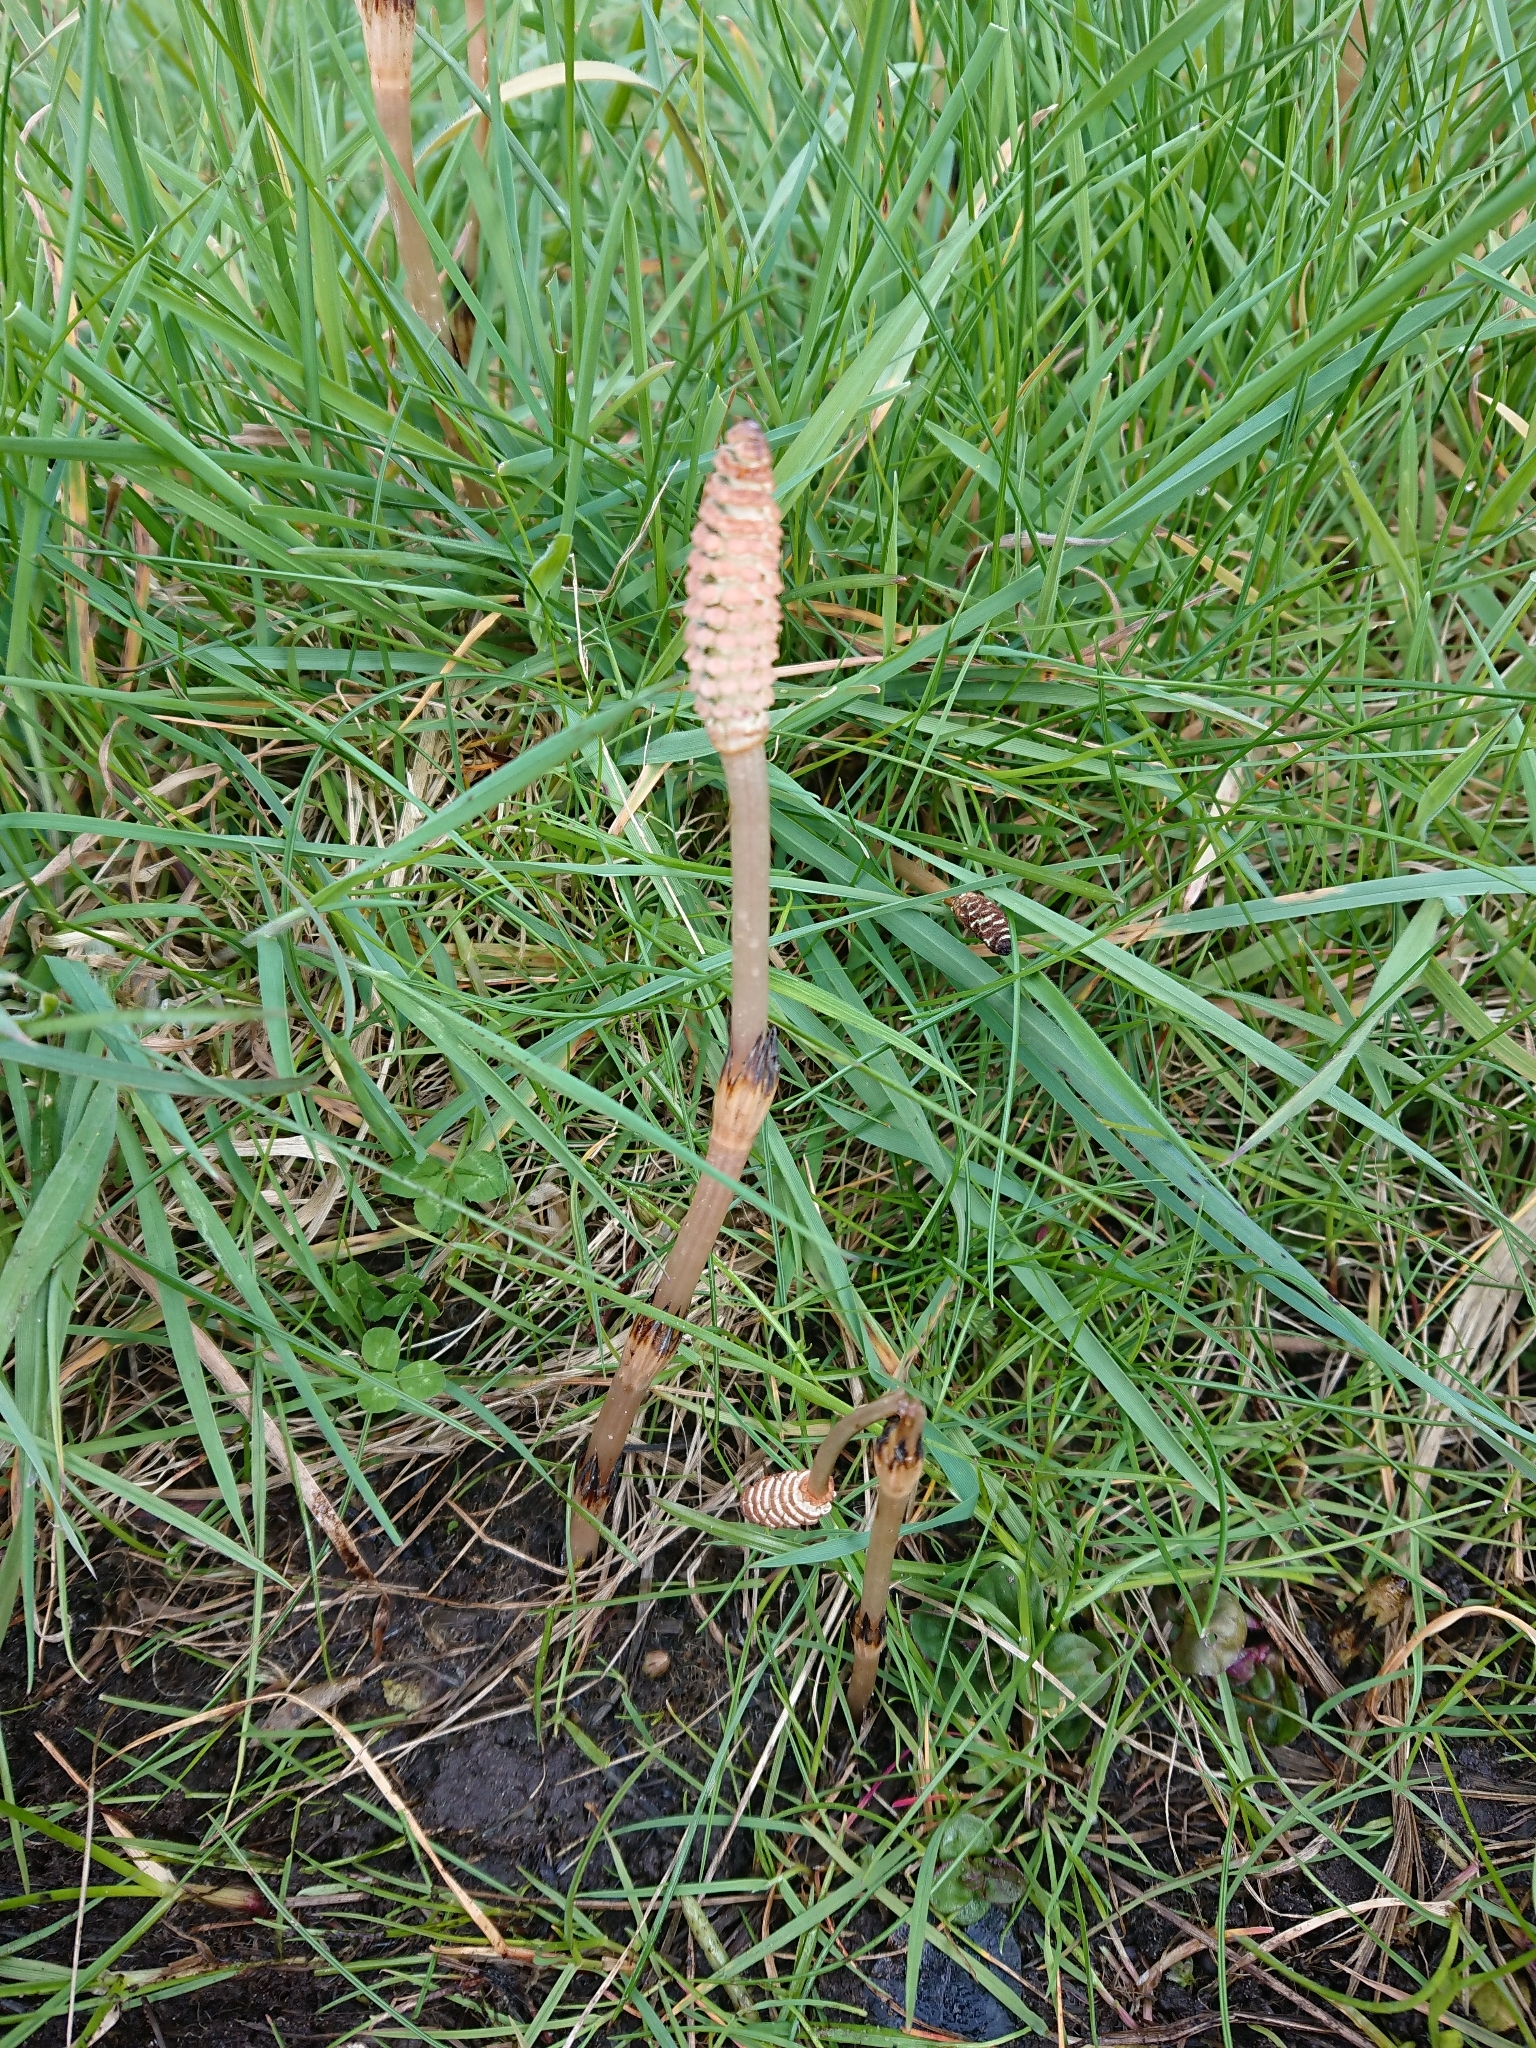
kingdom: Plantae
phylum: Tracheophyta
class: Polypodiopsida
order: Equisetales
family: Equisetaceae
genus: Equisetum
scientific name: Equisetum arvense
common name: Field horsetail
